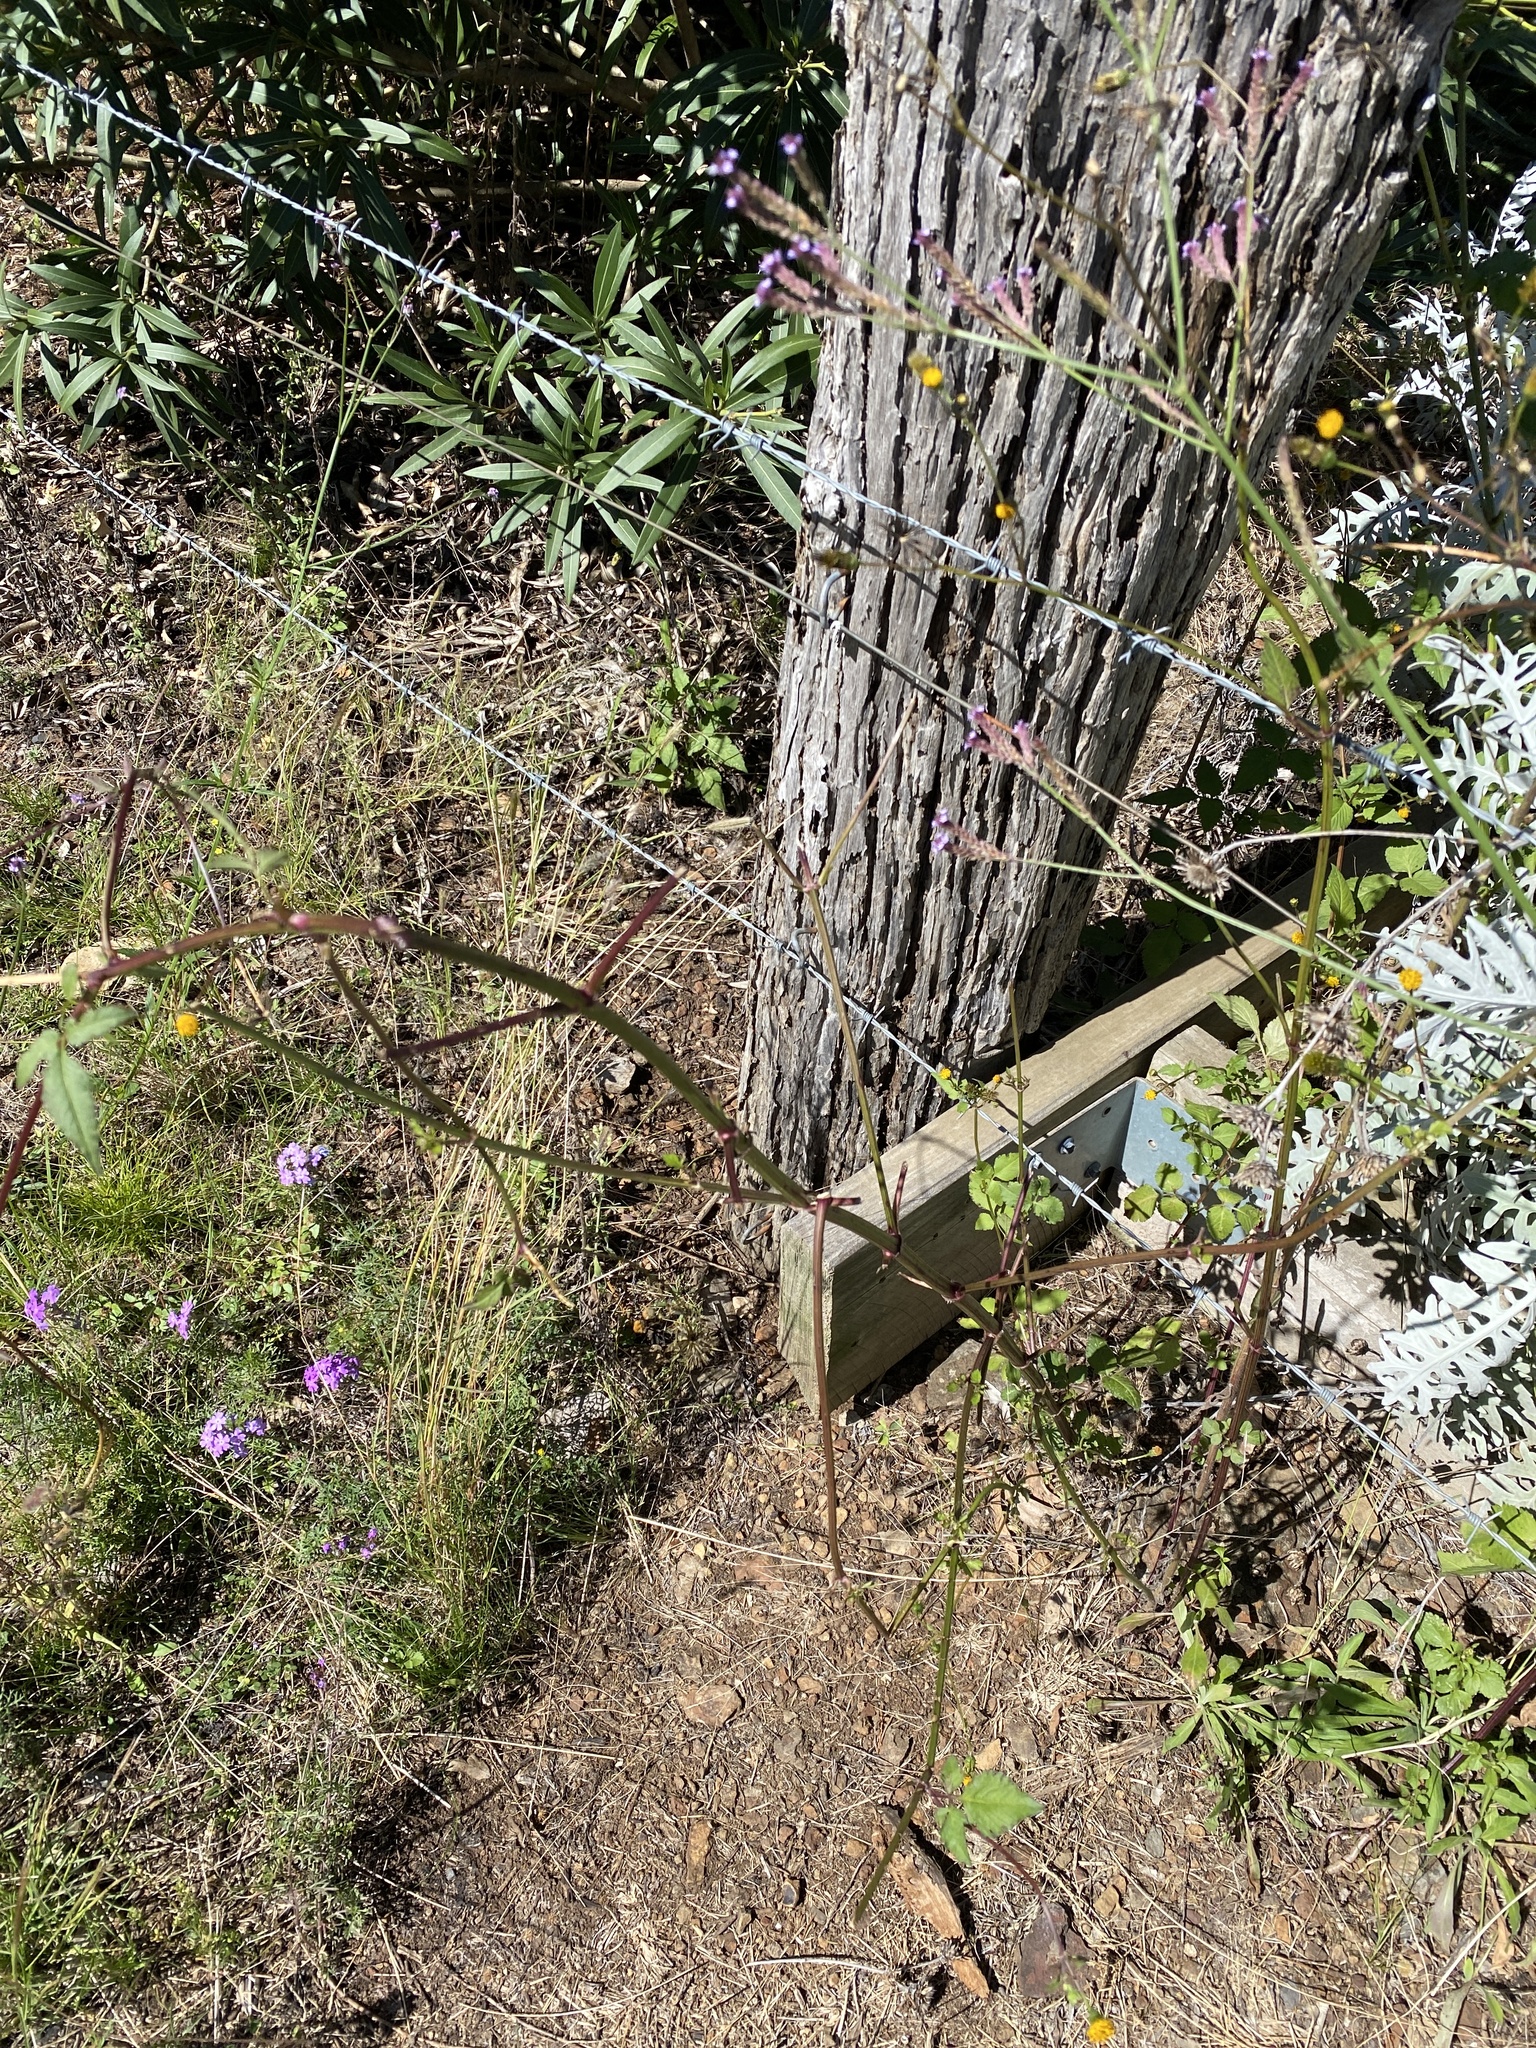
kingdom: Plantae
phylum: Tracheophyta
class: Magnoliopsida
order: Asterales
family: Asteraceae
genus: Bidens
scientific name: Bidens pilosa
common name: Black-jack
